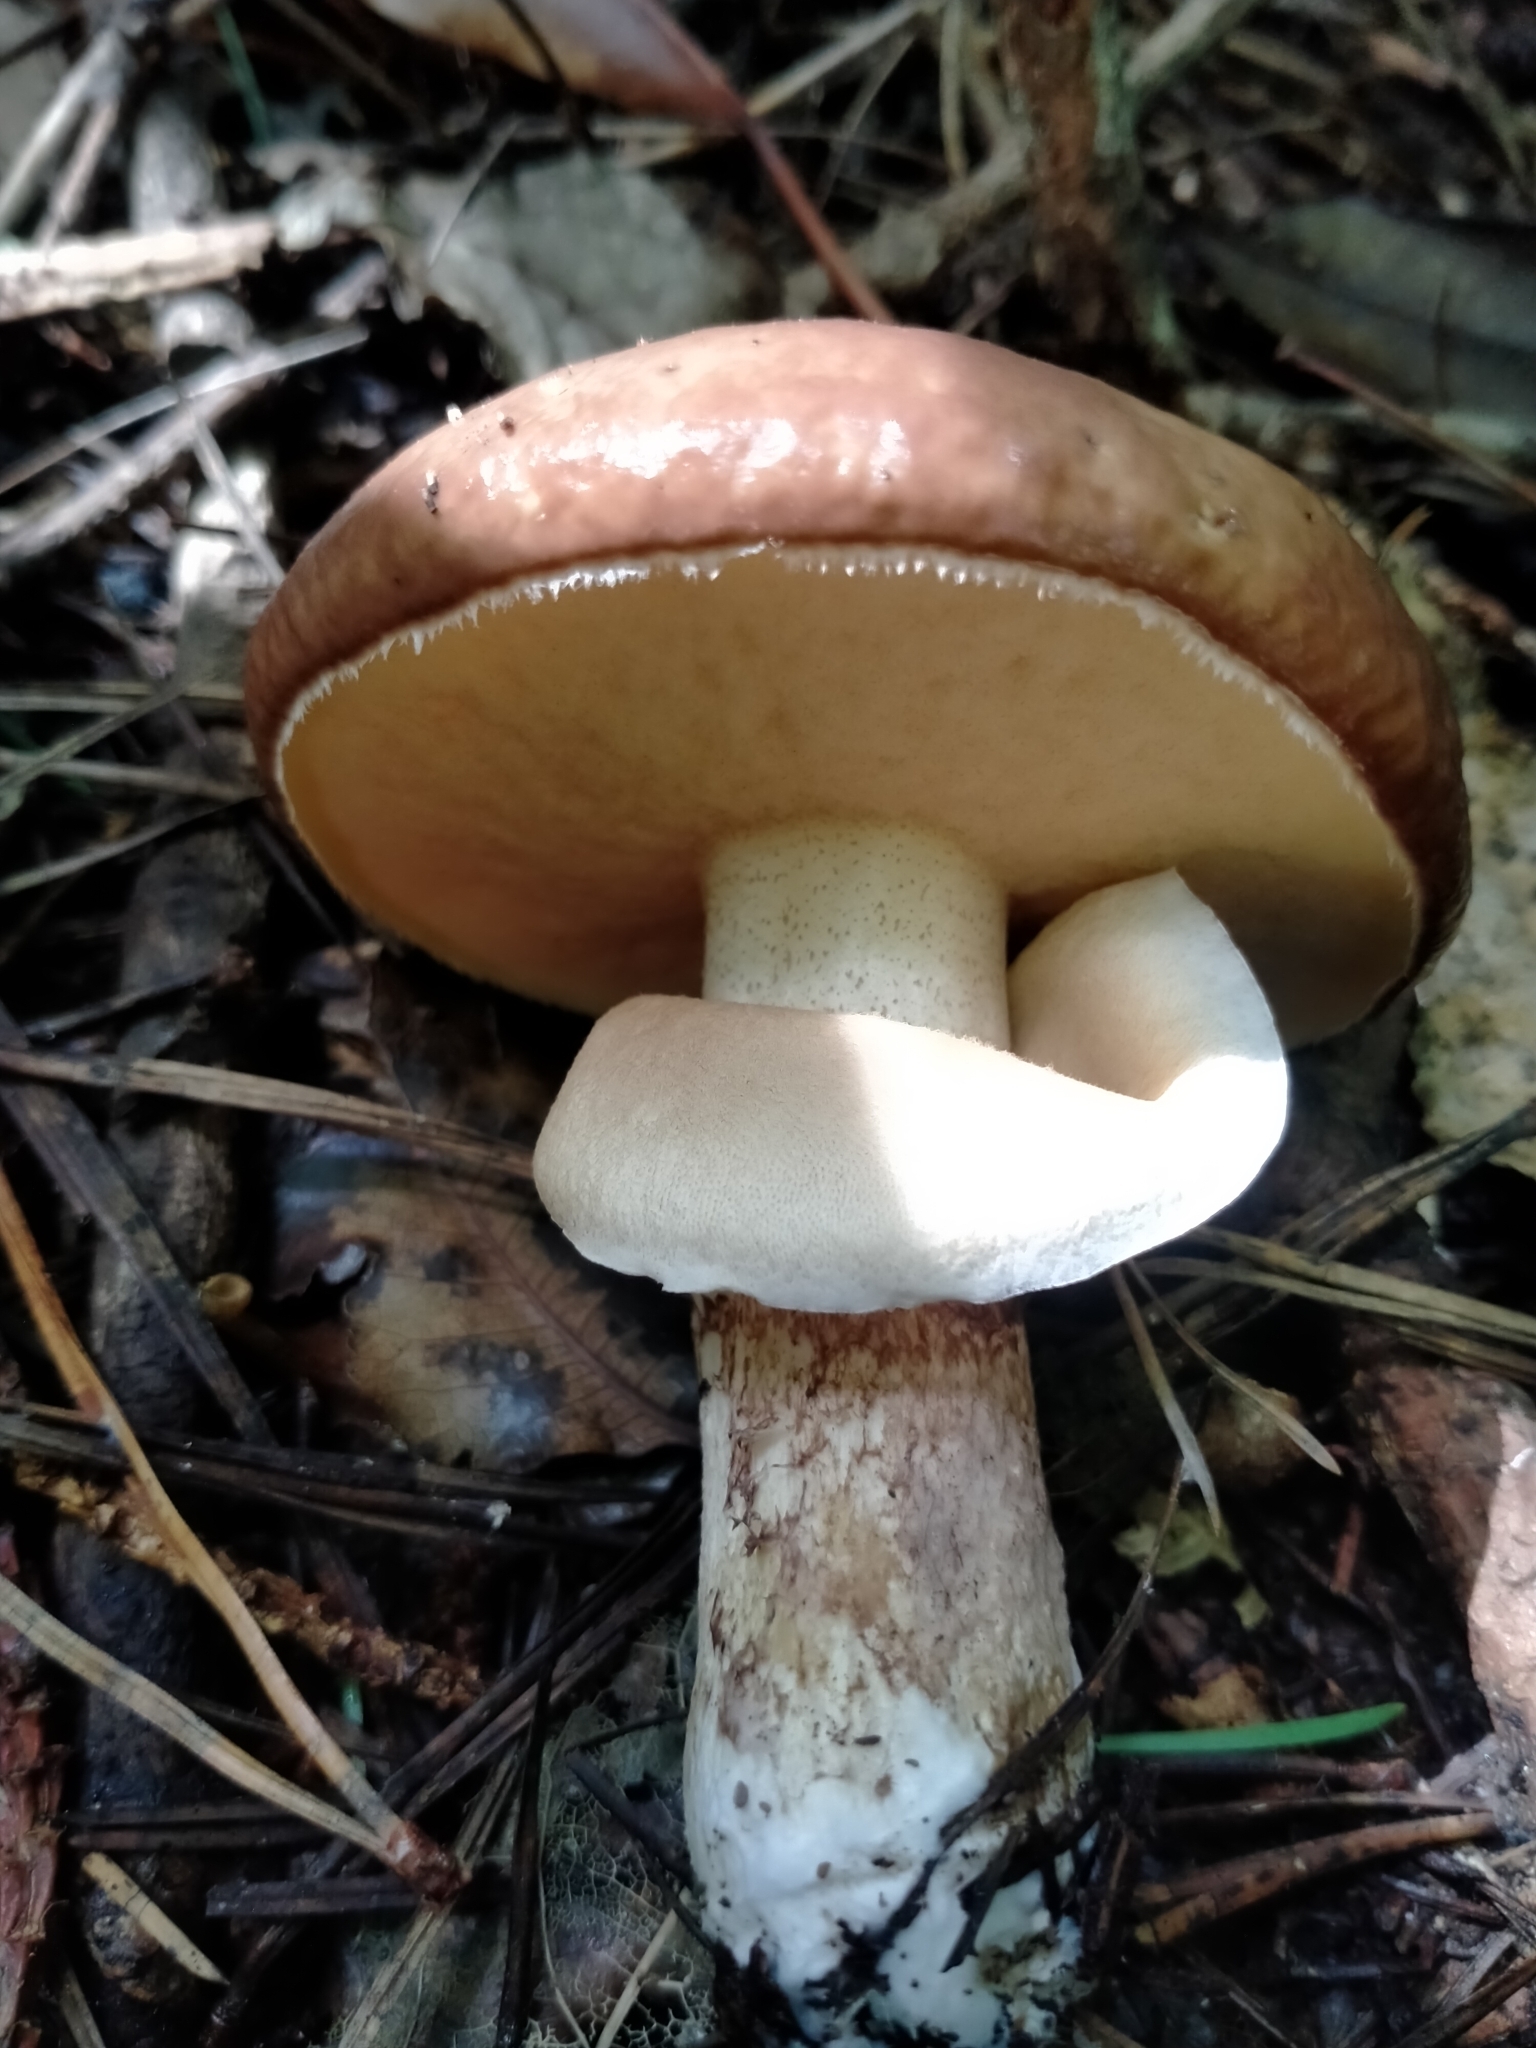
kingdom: Fungi
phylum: Basidiomycota
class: Agaricomycetes
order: Boletales
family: Suillaceae
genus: Suillus
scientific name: Suillus luteus
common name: Slippery jack
